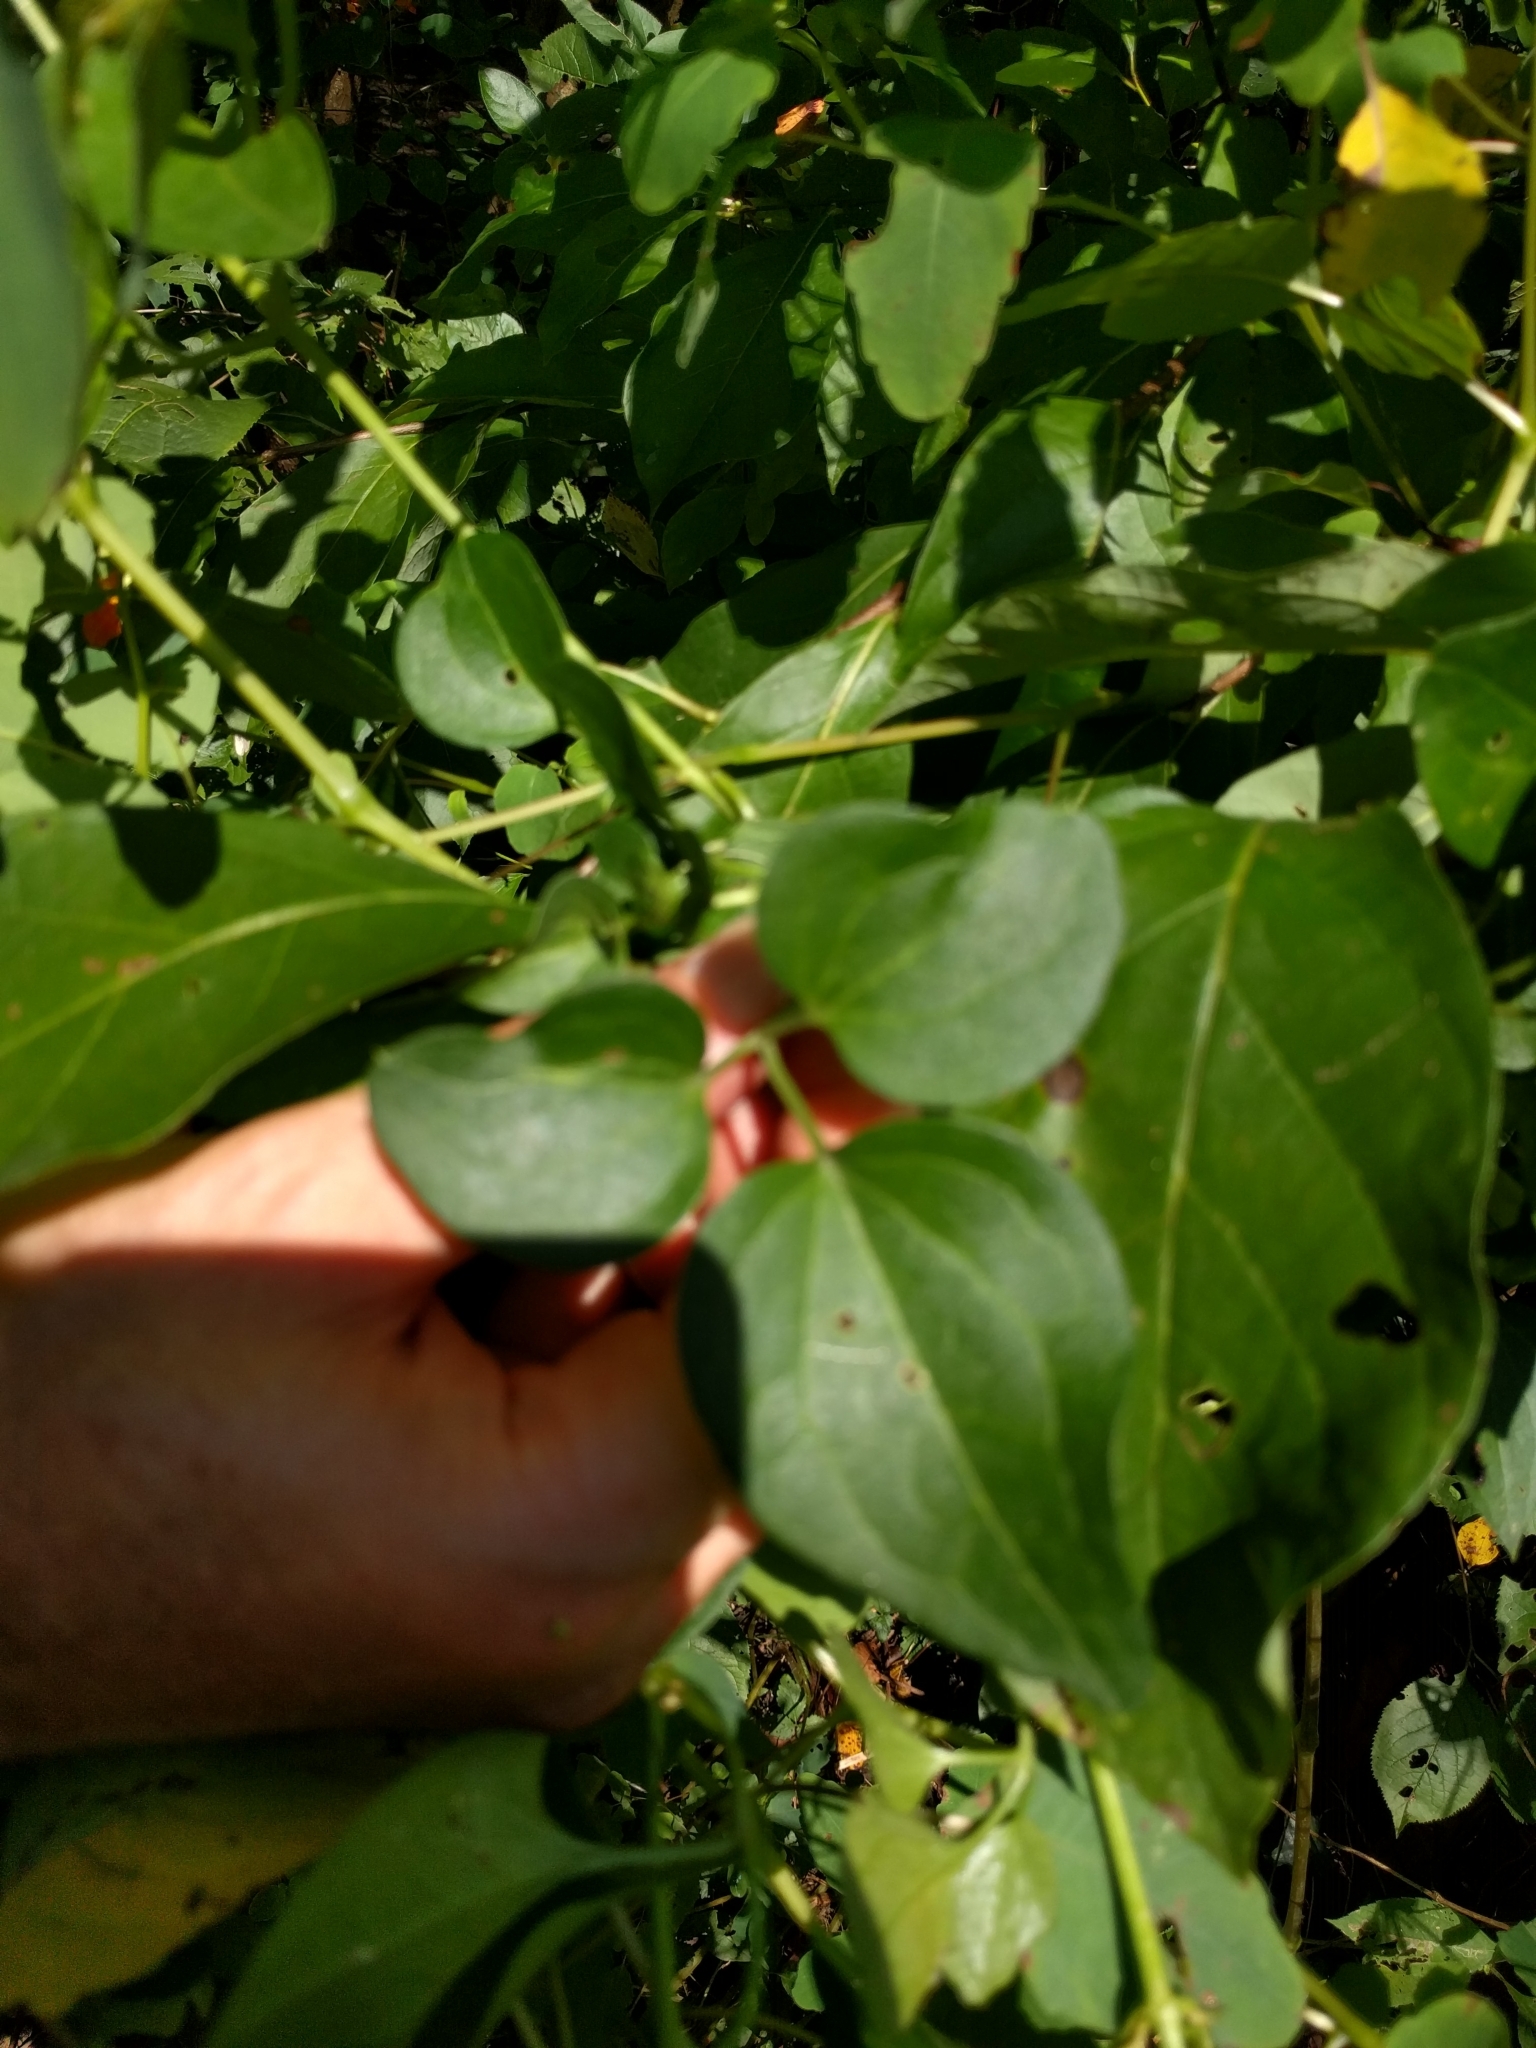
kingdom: Plantae
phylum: Tracheophyta
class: Magnoliopsida
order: Ranunculales
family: Ranunculaceae
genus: Clematis
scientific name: Clematis terniflora
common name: Sweet autumn clematis
